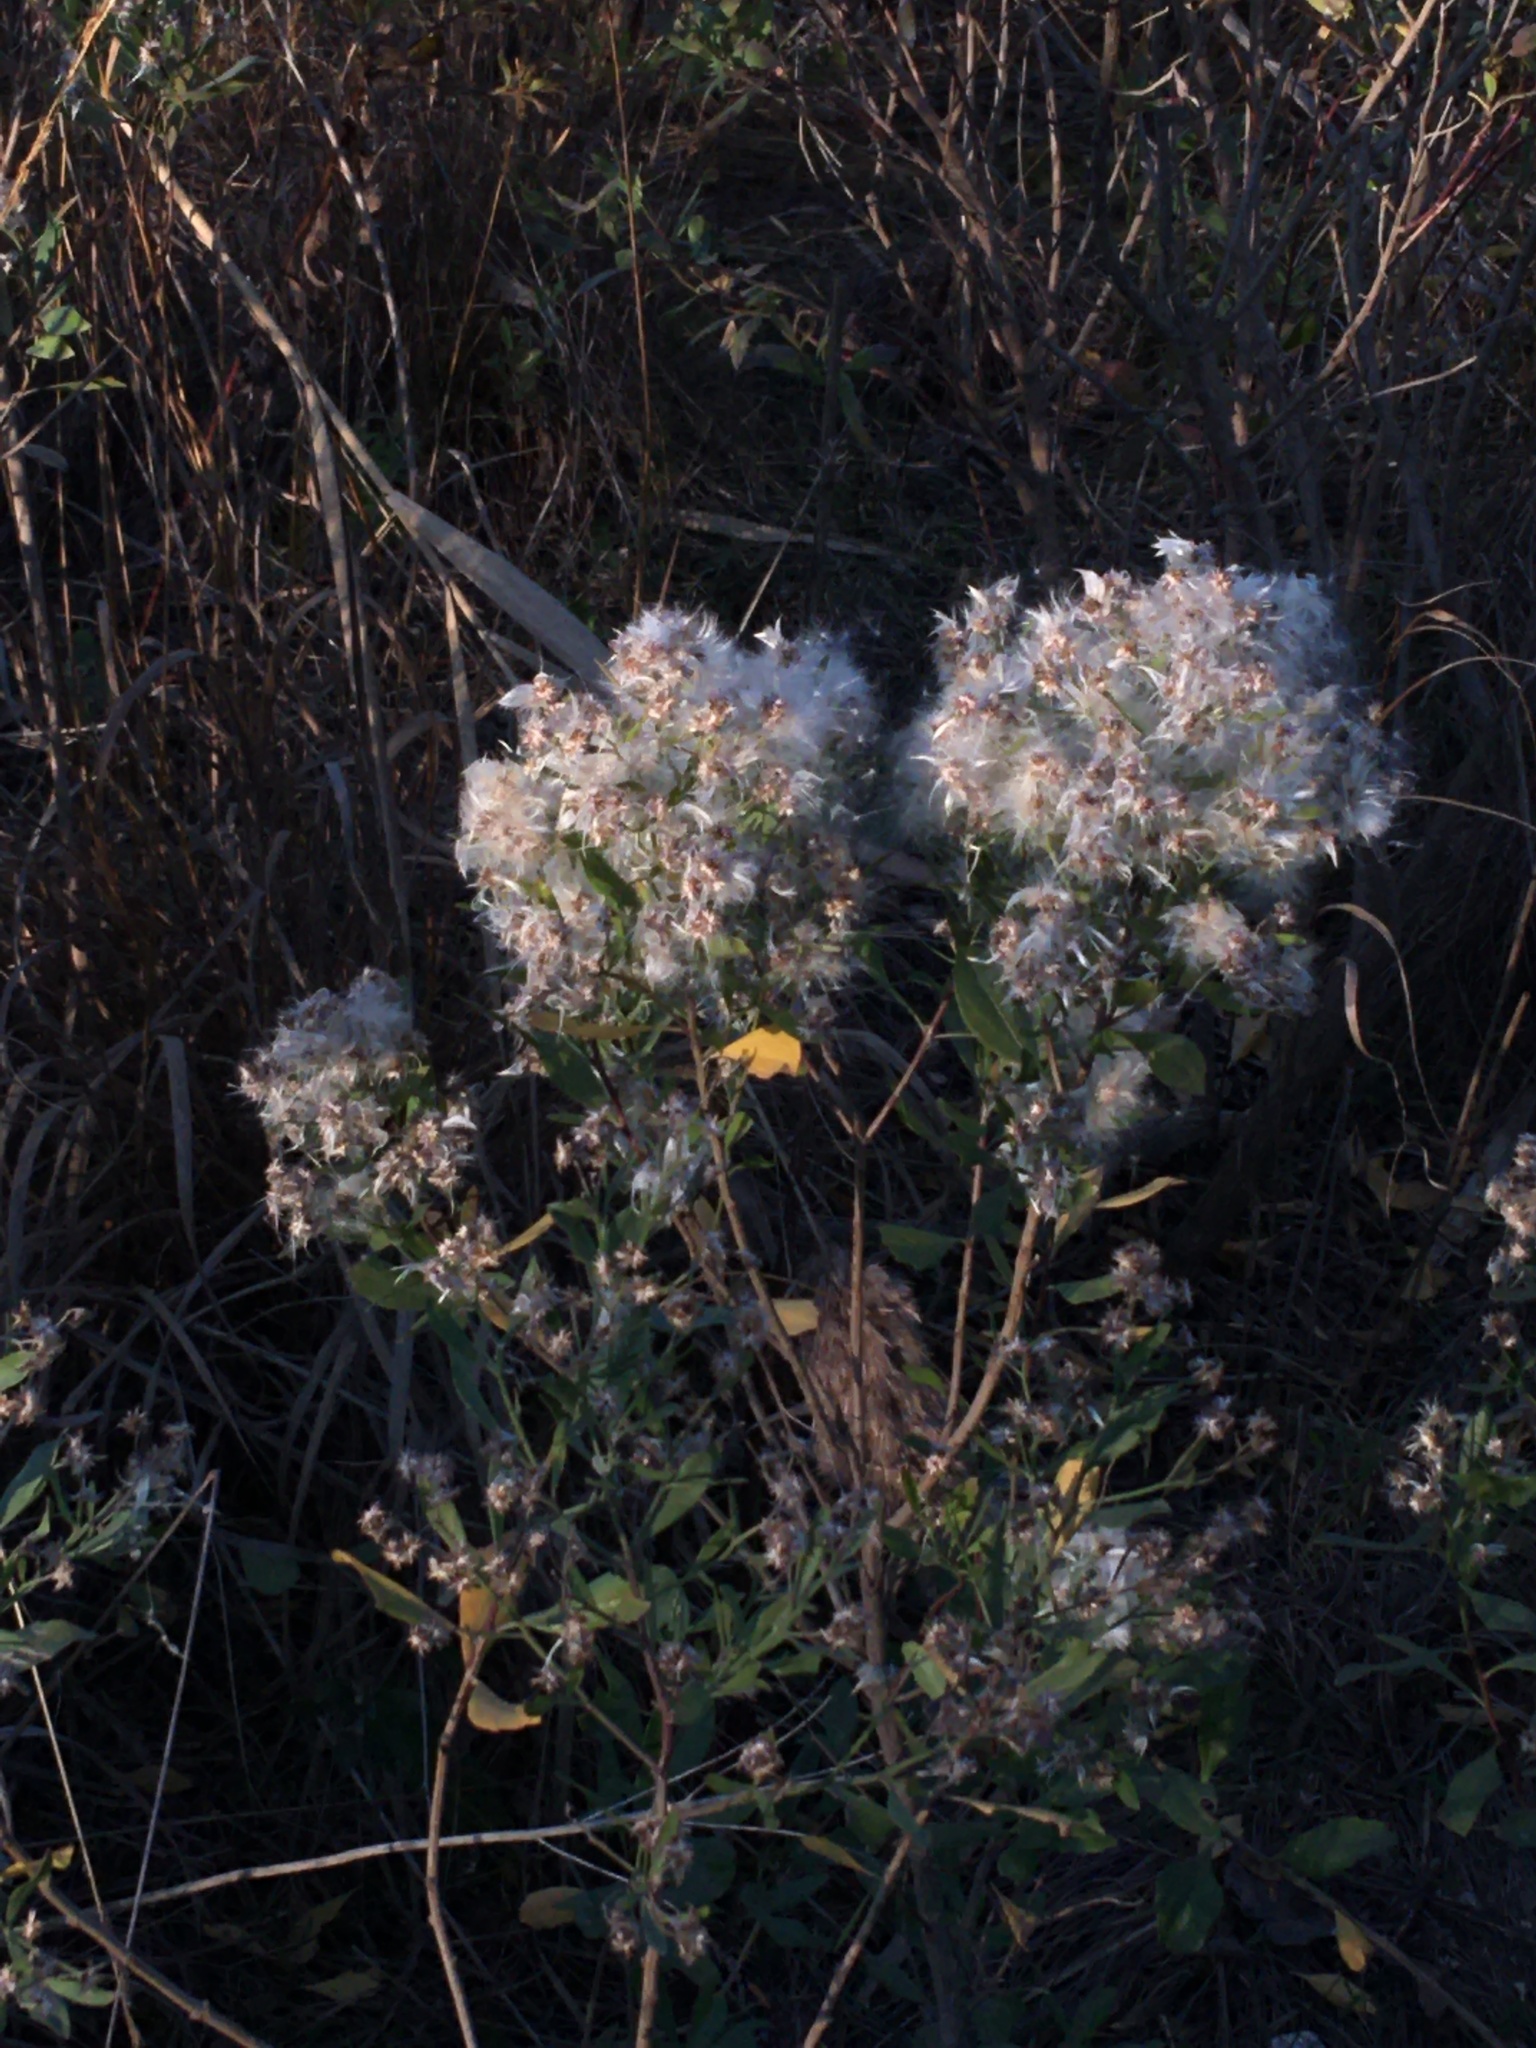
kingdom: Plantae
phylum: Tracheophyta
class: Magnoliopsida
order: Asterales
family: Asteraceae
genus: Baccharis
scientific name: Baccharis halimifolia
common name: Eastern baccharis
